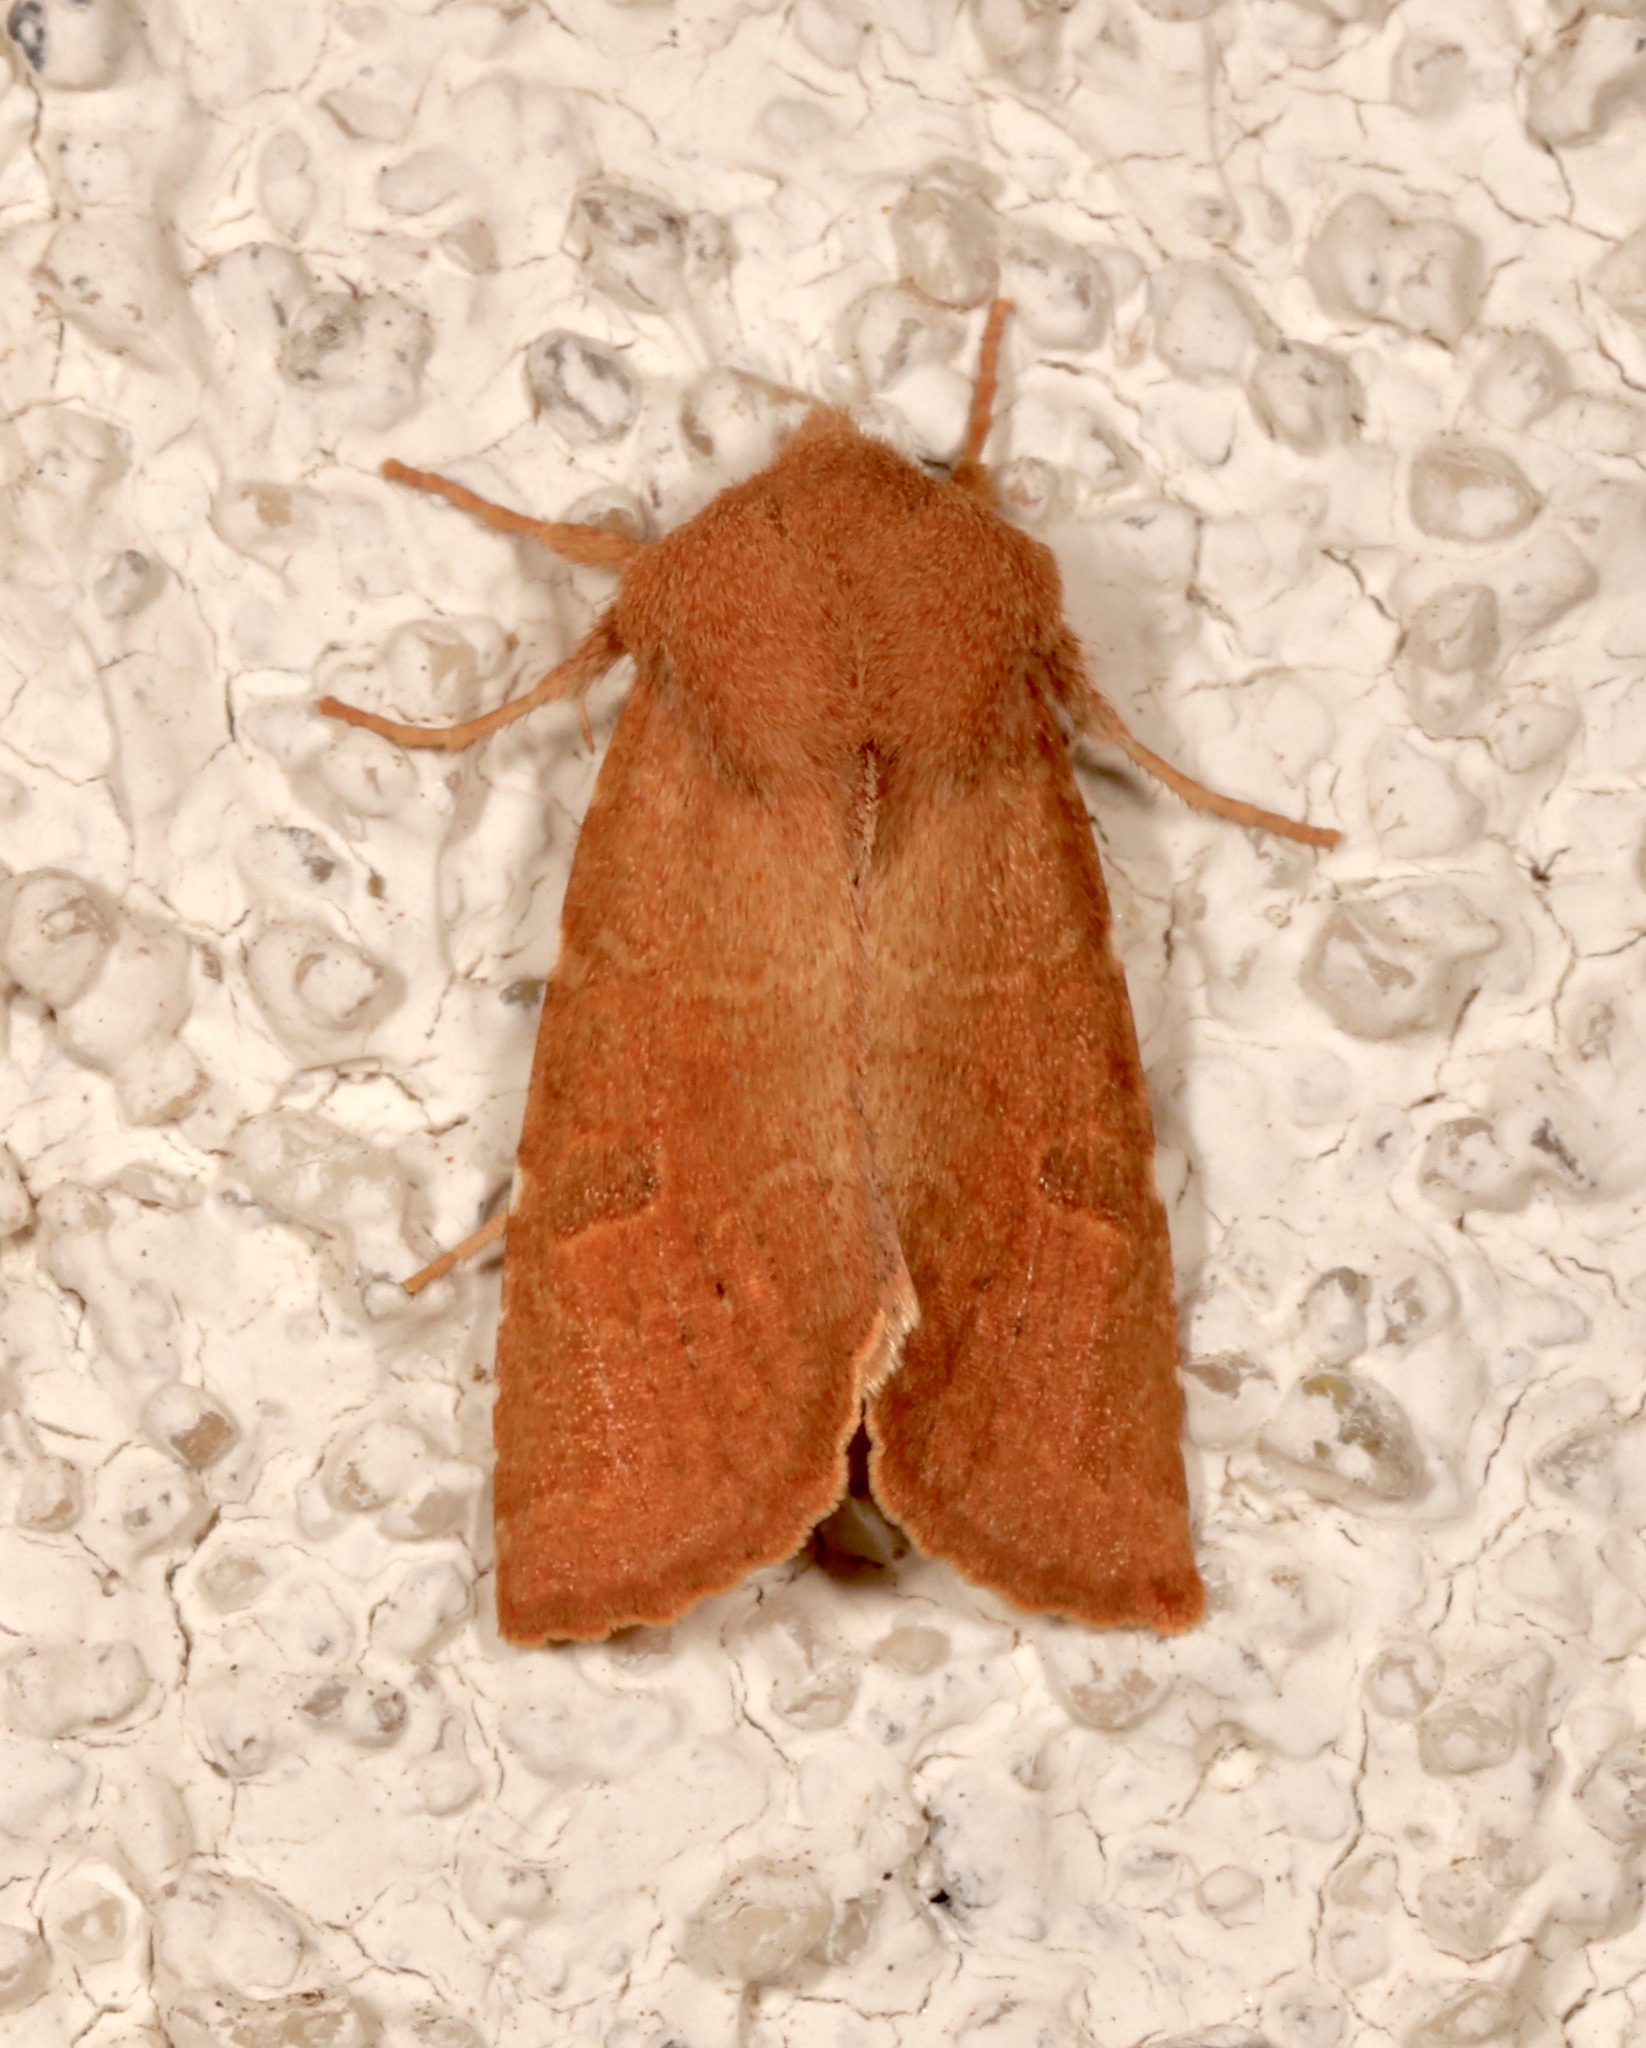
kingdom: Animalia
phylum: Arthropoda
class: Insecta
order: Lepidoptera
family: Noctuidae
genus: Orthosia
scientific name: Orthosia ferrigera
